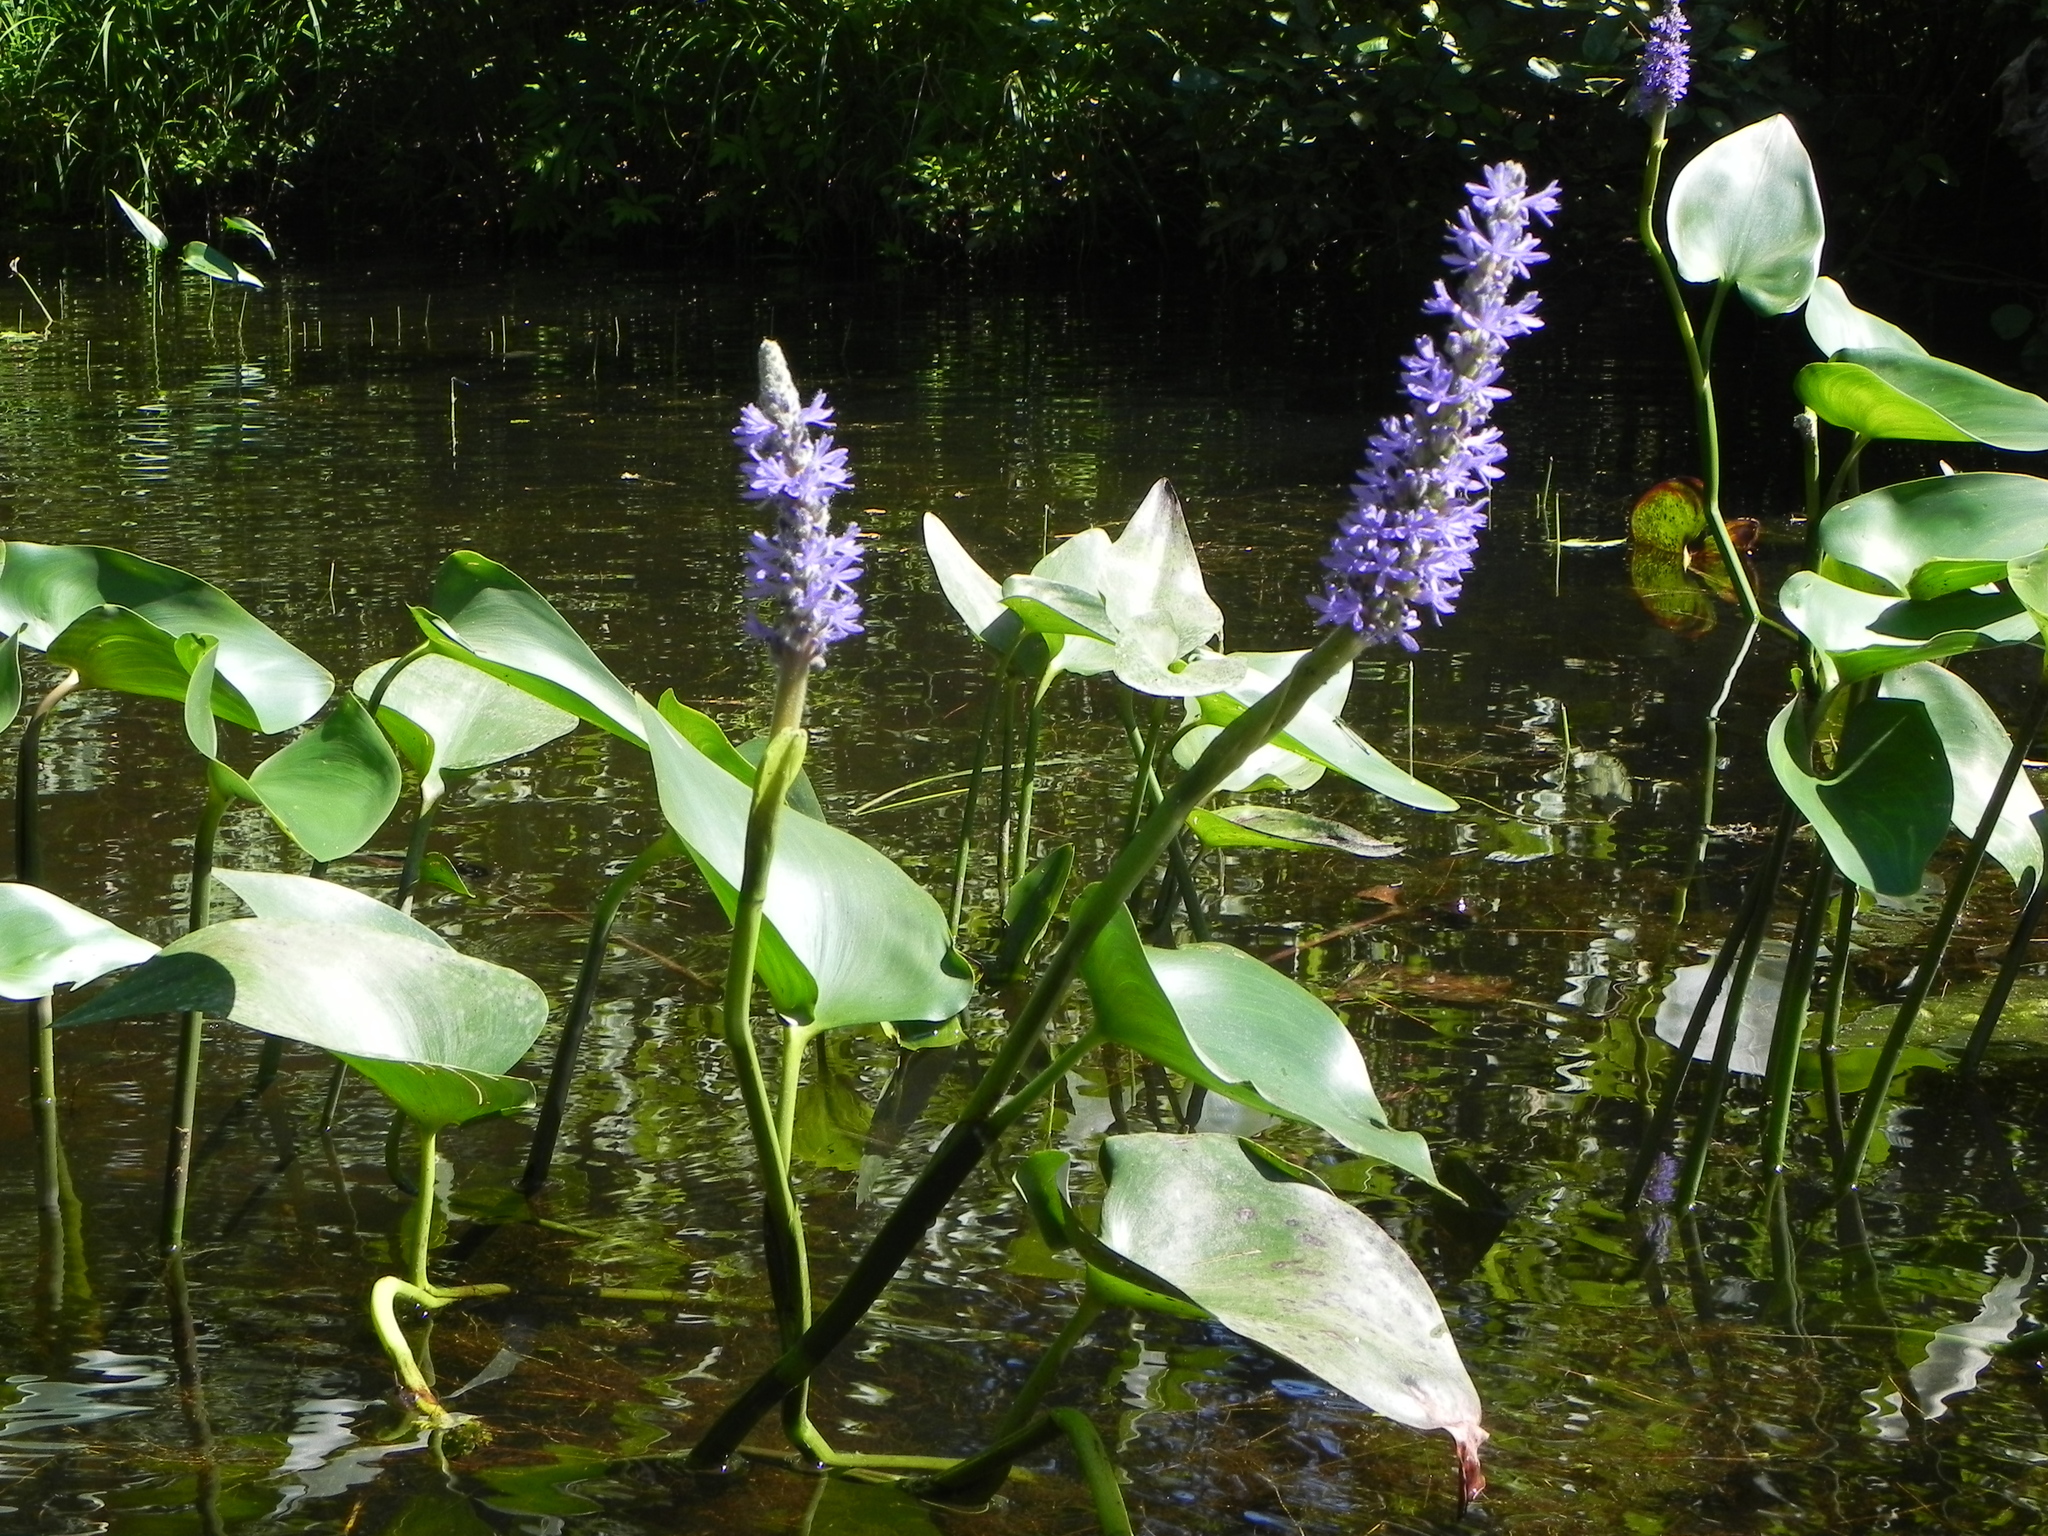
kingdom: Plantae
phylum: Tracheophyta
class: Liliopsida
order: Commelinales
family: Pontederiaceae
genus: Pontederia
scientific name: Pontederia cordata
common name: Pickerelweed
